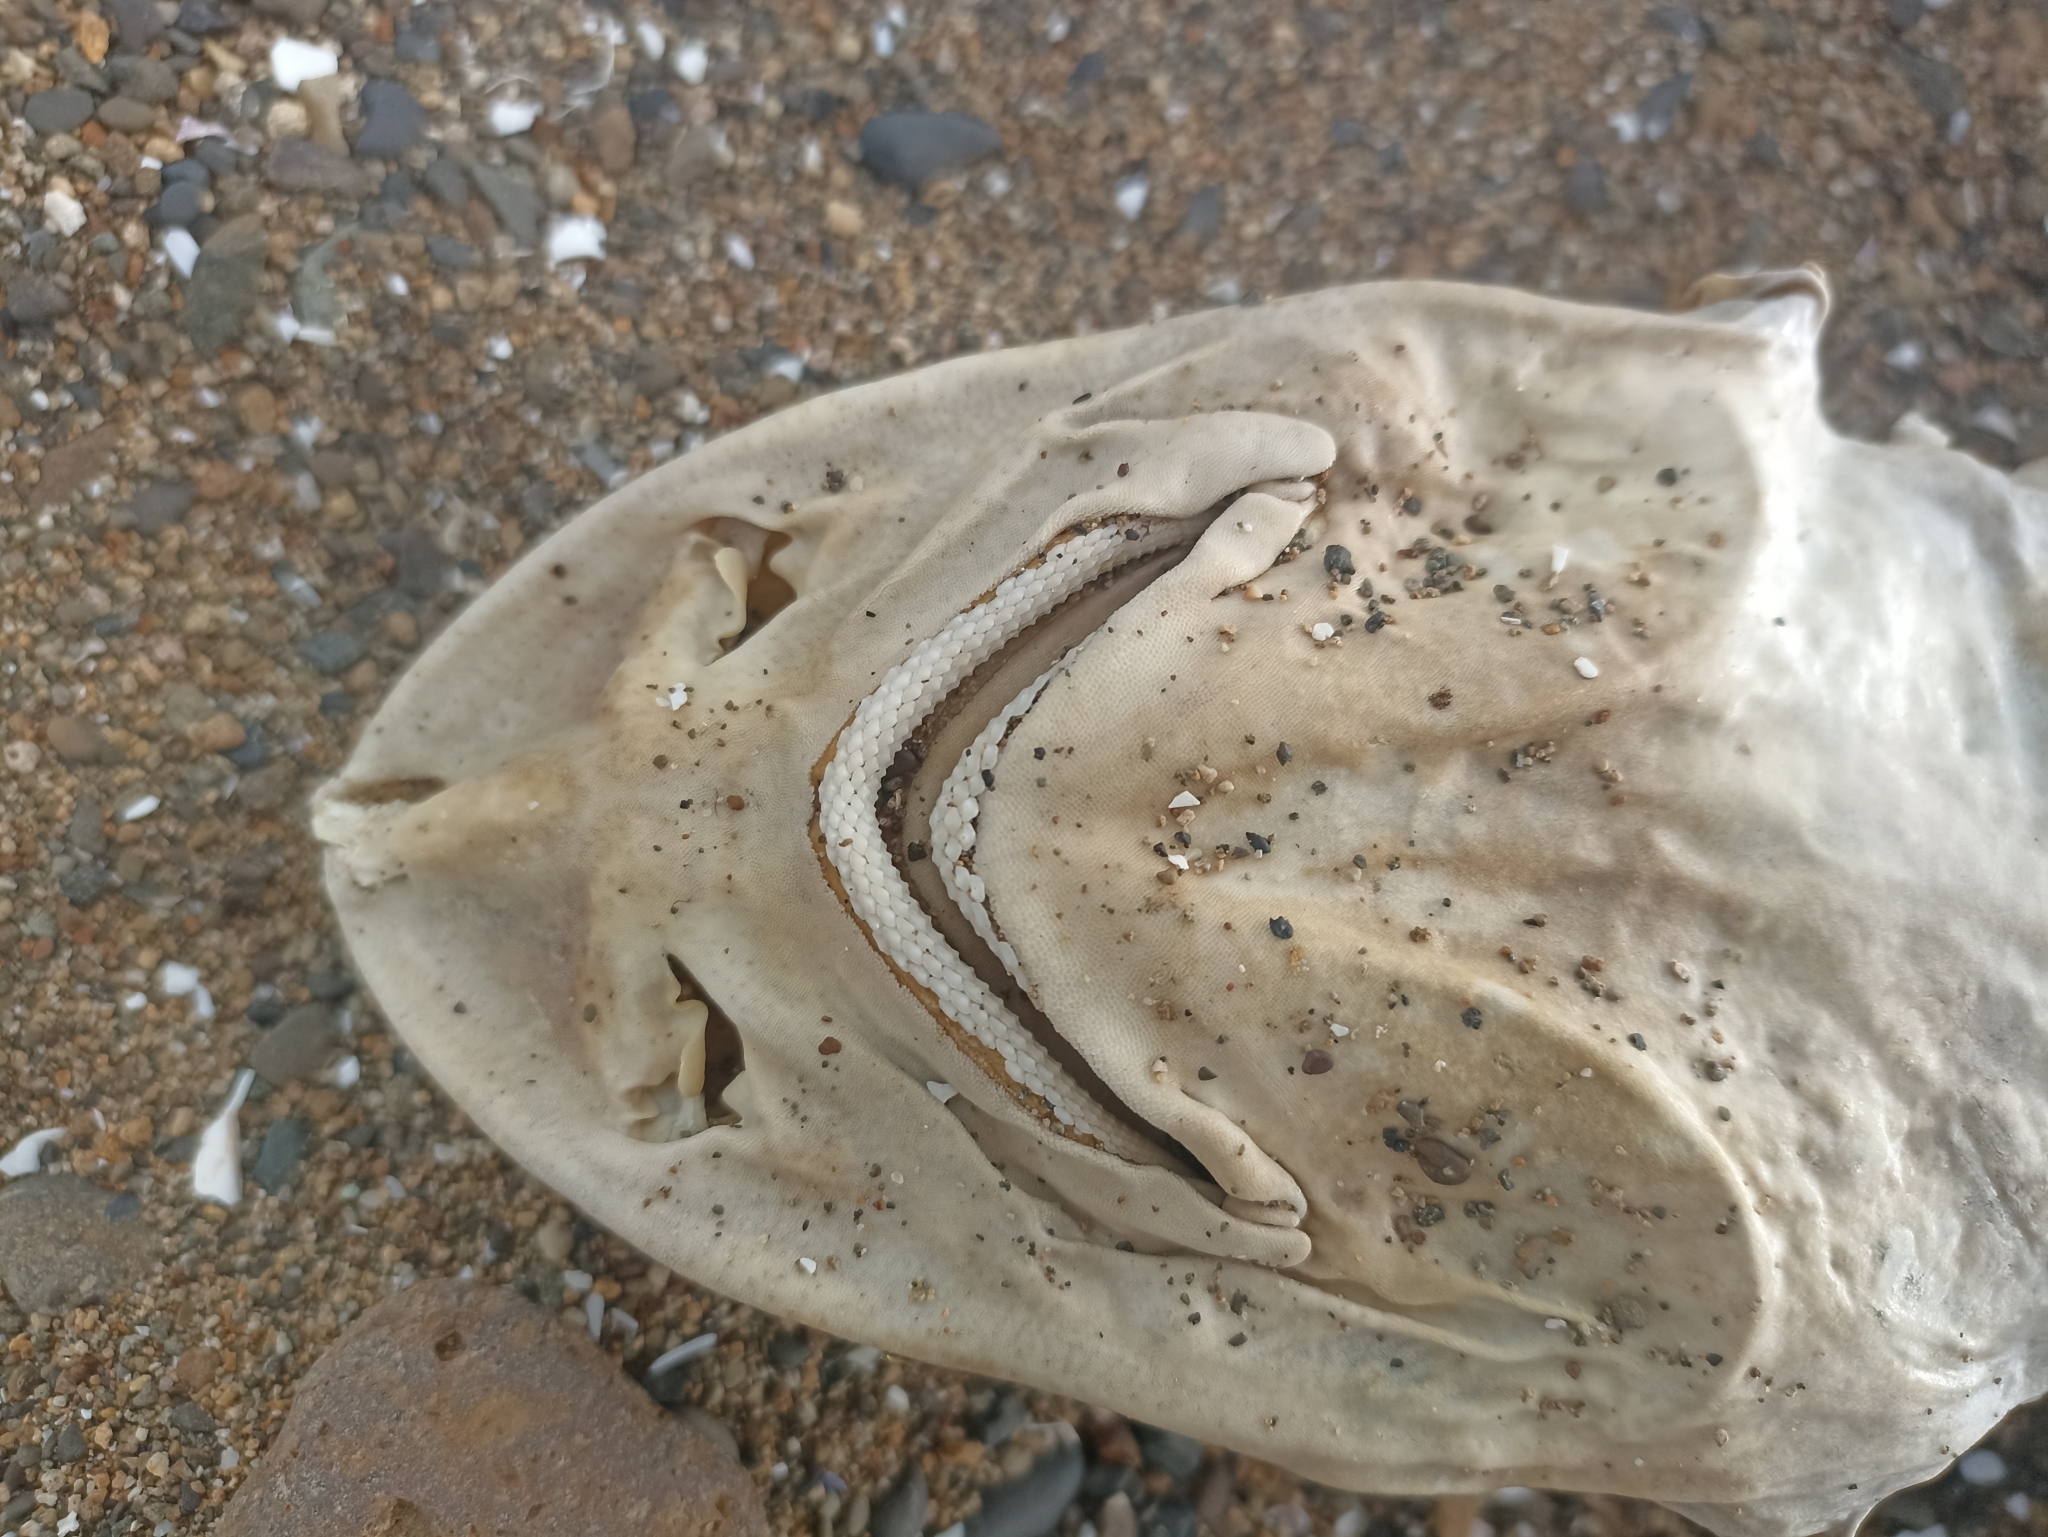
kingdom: Animalia
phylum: Chordata
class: Elasmobranchii
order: Carcharhiniformes
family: Triakidae
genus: Mustelus
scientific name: Mustelus lenticulatus
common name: Gummy shark
